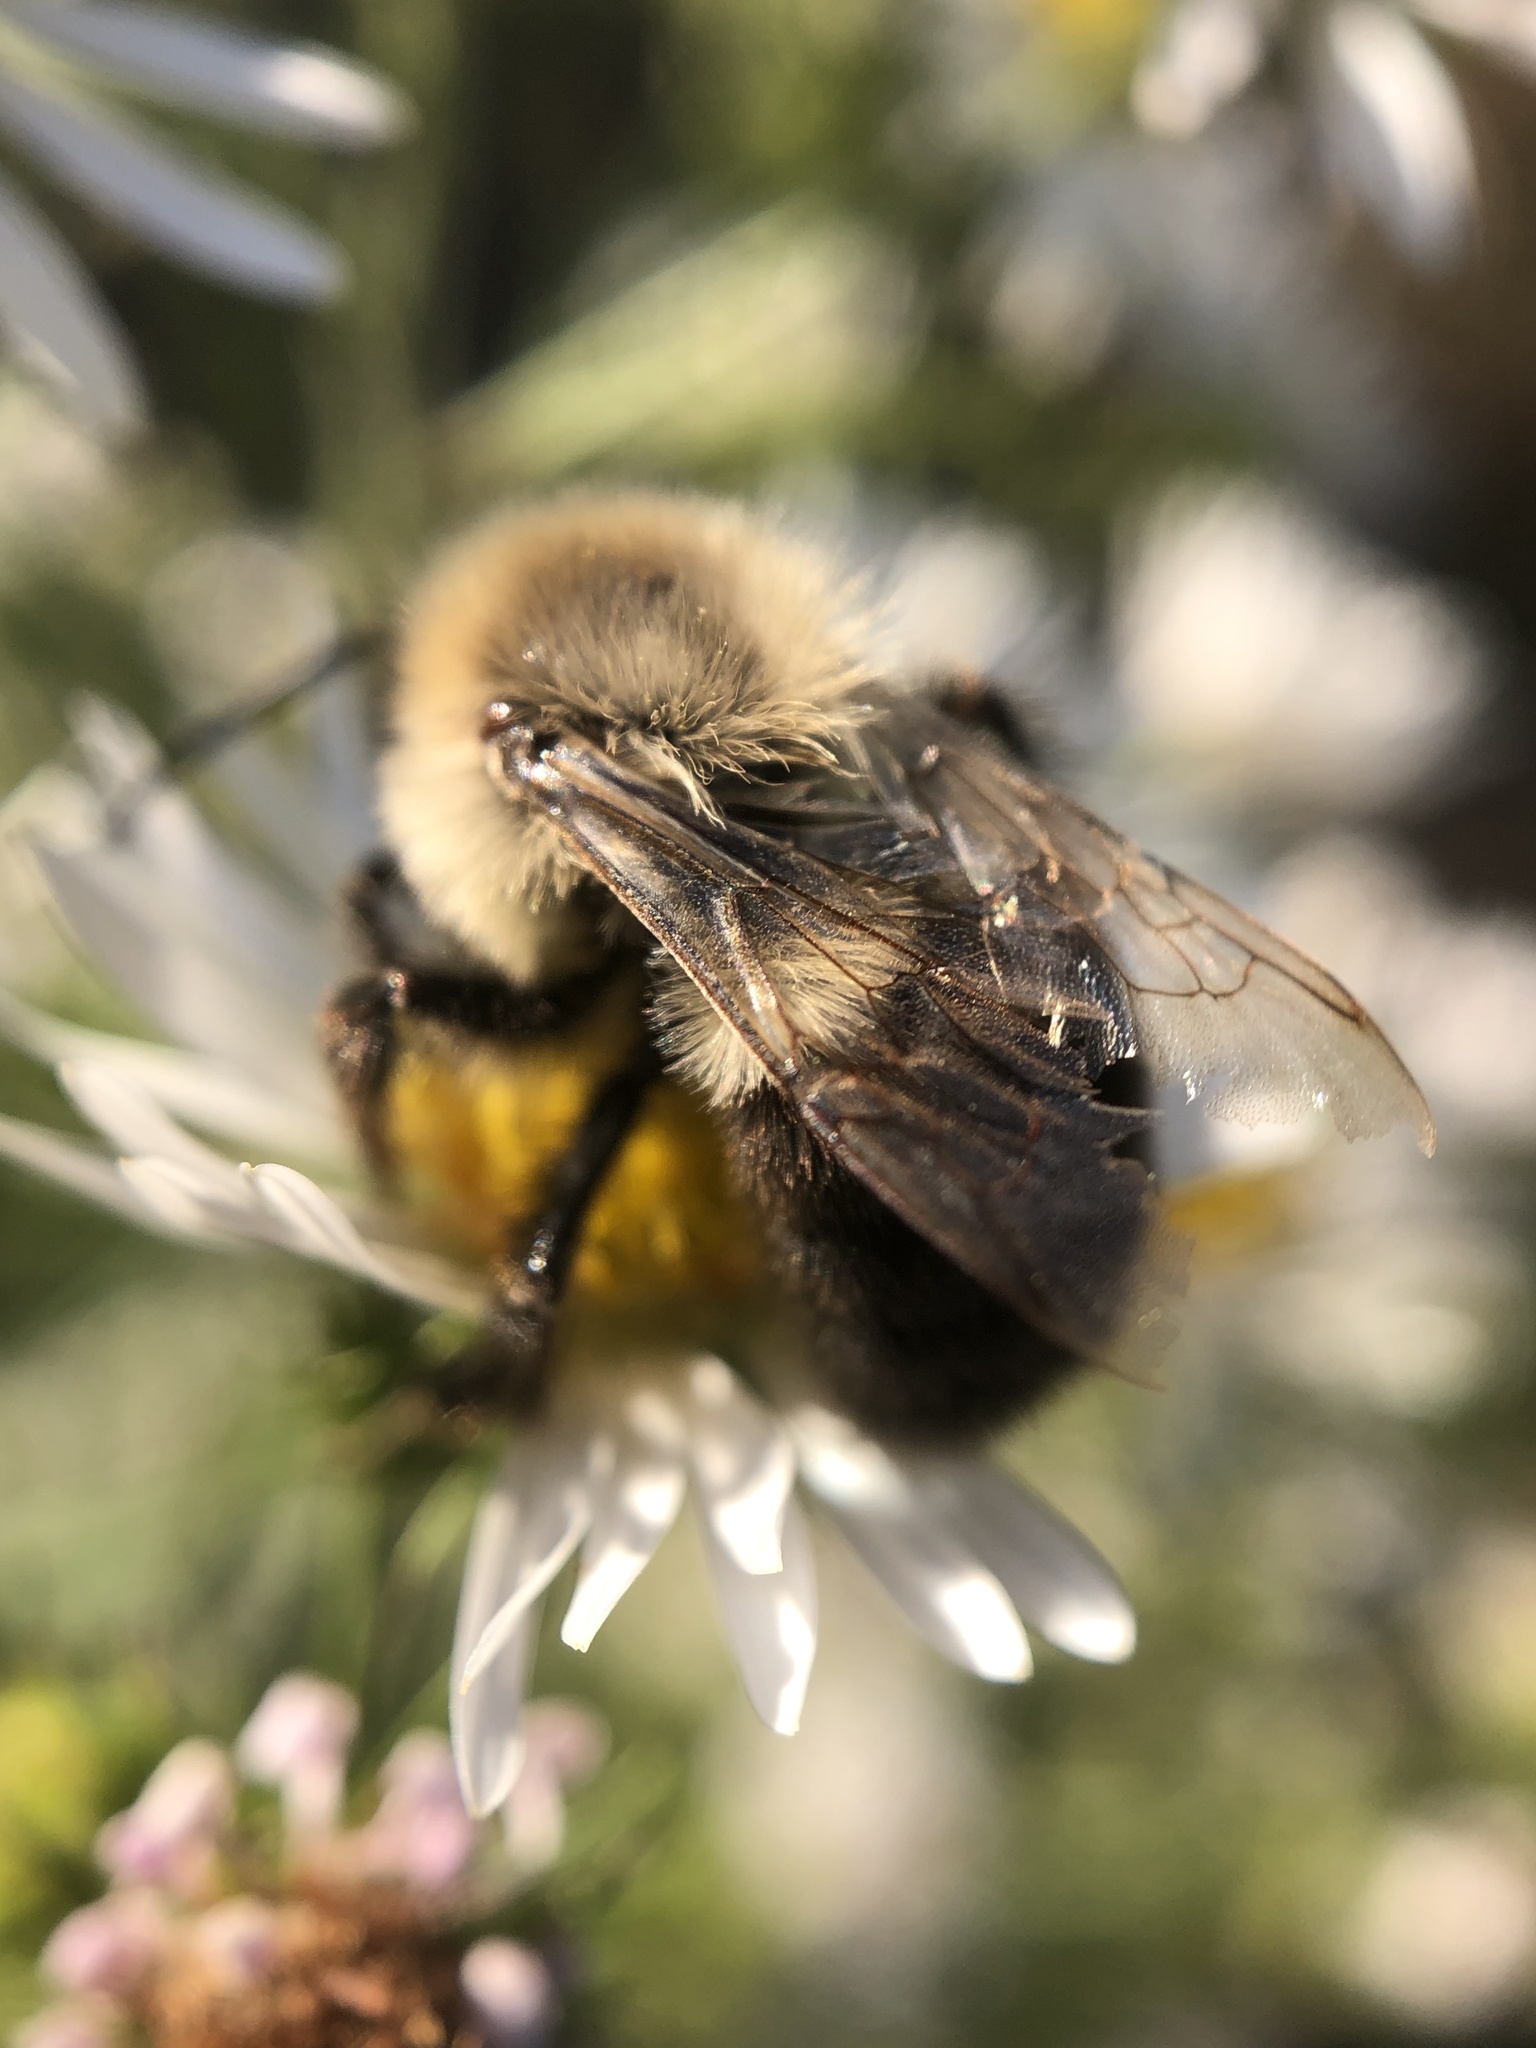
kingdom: Animalia
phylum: Arthropoda
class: Insecta
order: Hymenoptera
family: Apidae
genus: Bombus
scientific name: Bombus impatiens
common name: Common eastern bumble bee
